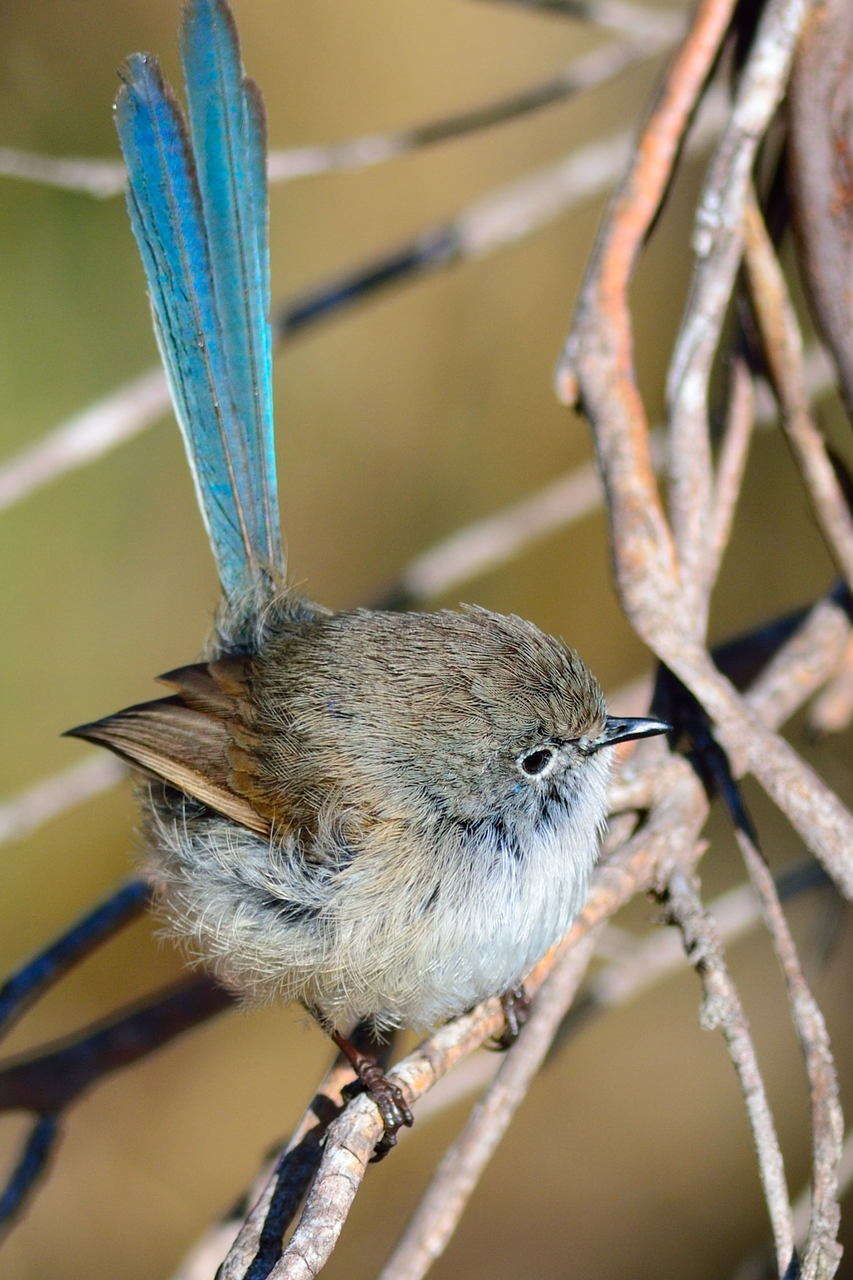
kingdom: Animalia
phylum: Chordata
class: Aves
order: Passeriformes
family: Maluridae
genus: Malurus
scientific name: Malurus splendens
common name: Splendid fairywren
